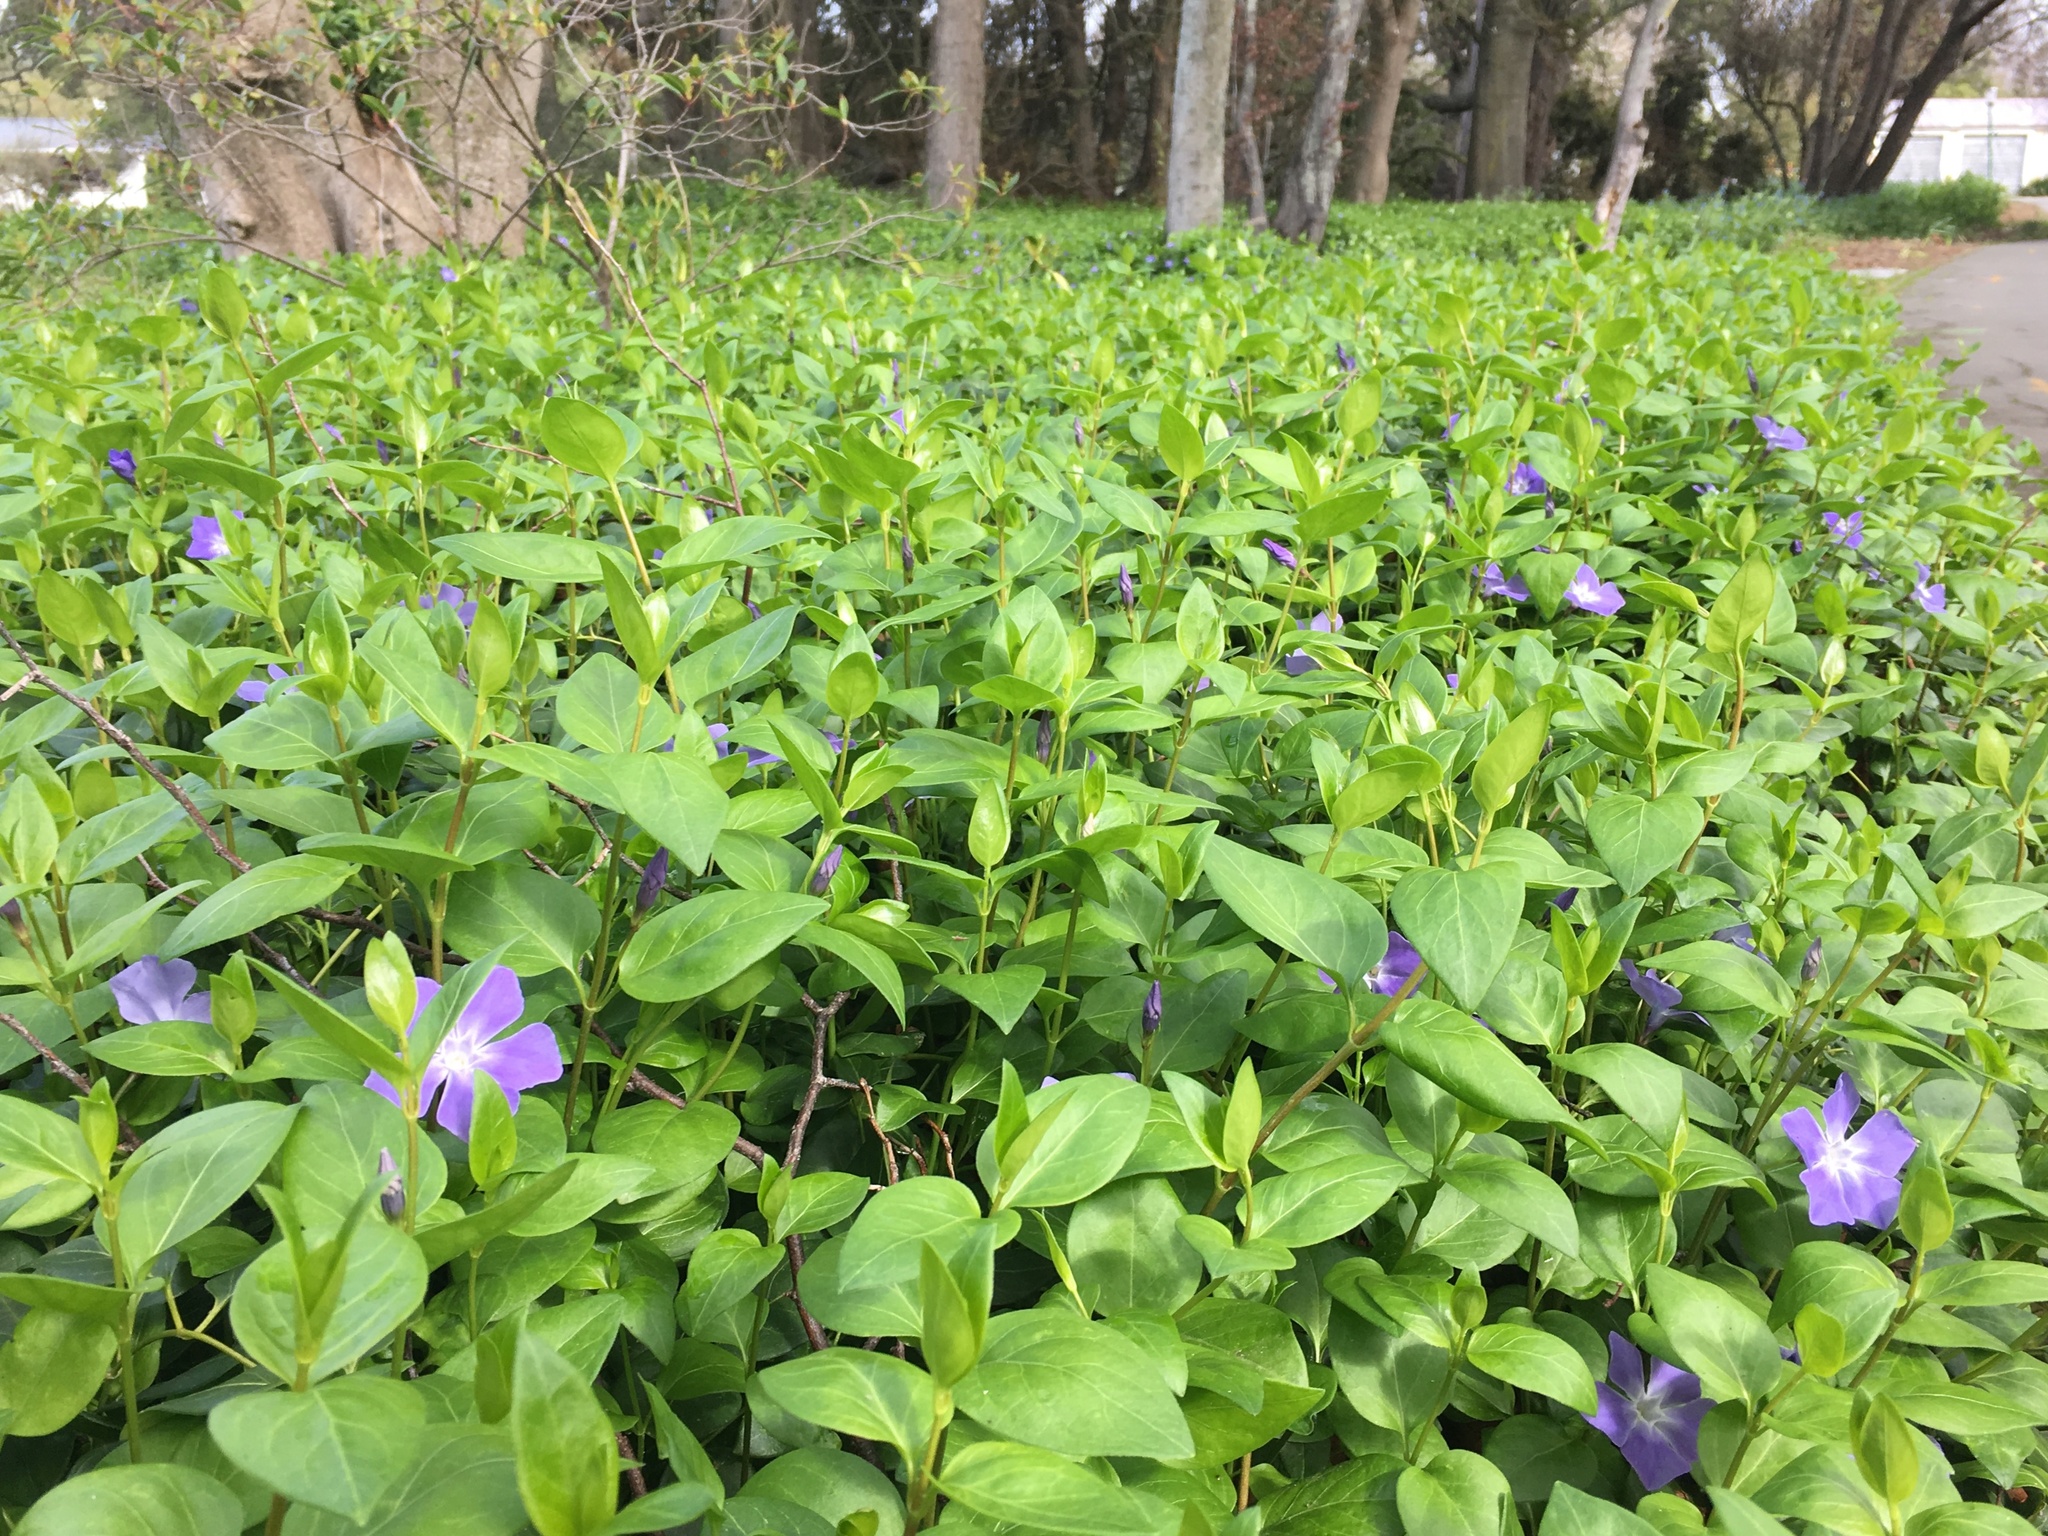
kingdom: Plantae
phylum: Tracheophyta
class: Magnoliopsida
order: Gentianales
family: Apocynaceae
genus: Vinca
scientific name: Vinca major
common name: Greater periwinkle
